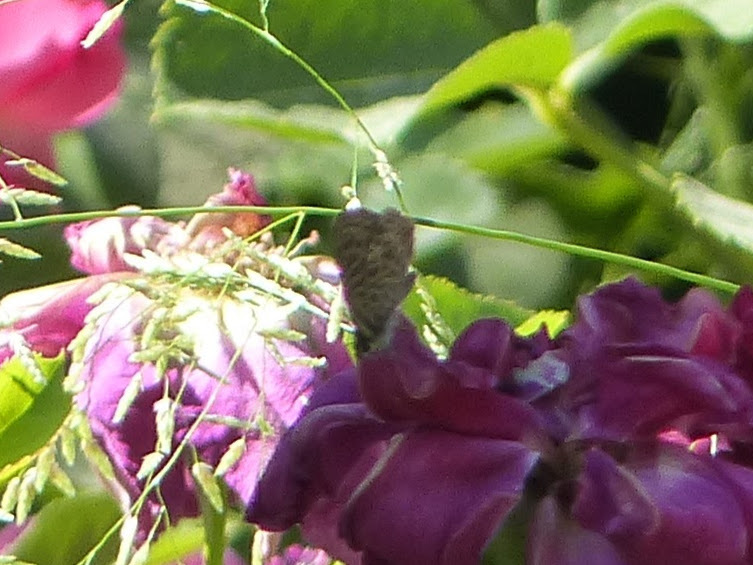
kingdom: Animalia
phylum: Arthropoda
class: Insecta
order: Lepidoptera
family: Lycaenidae
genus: Leptotes
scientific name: Leptotes pirithous
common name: Lang's short-tailed blue
